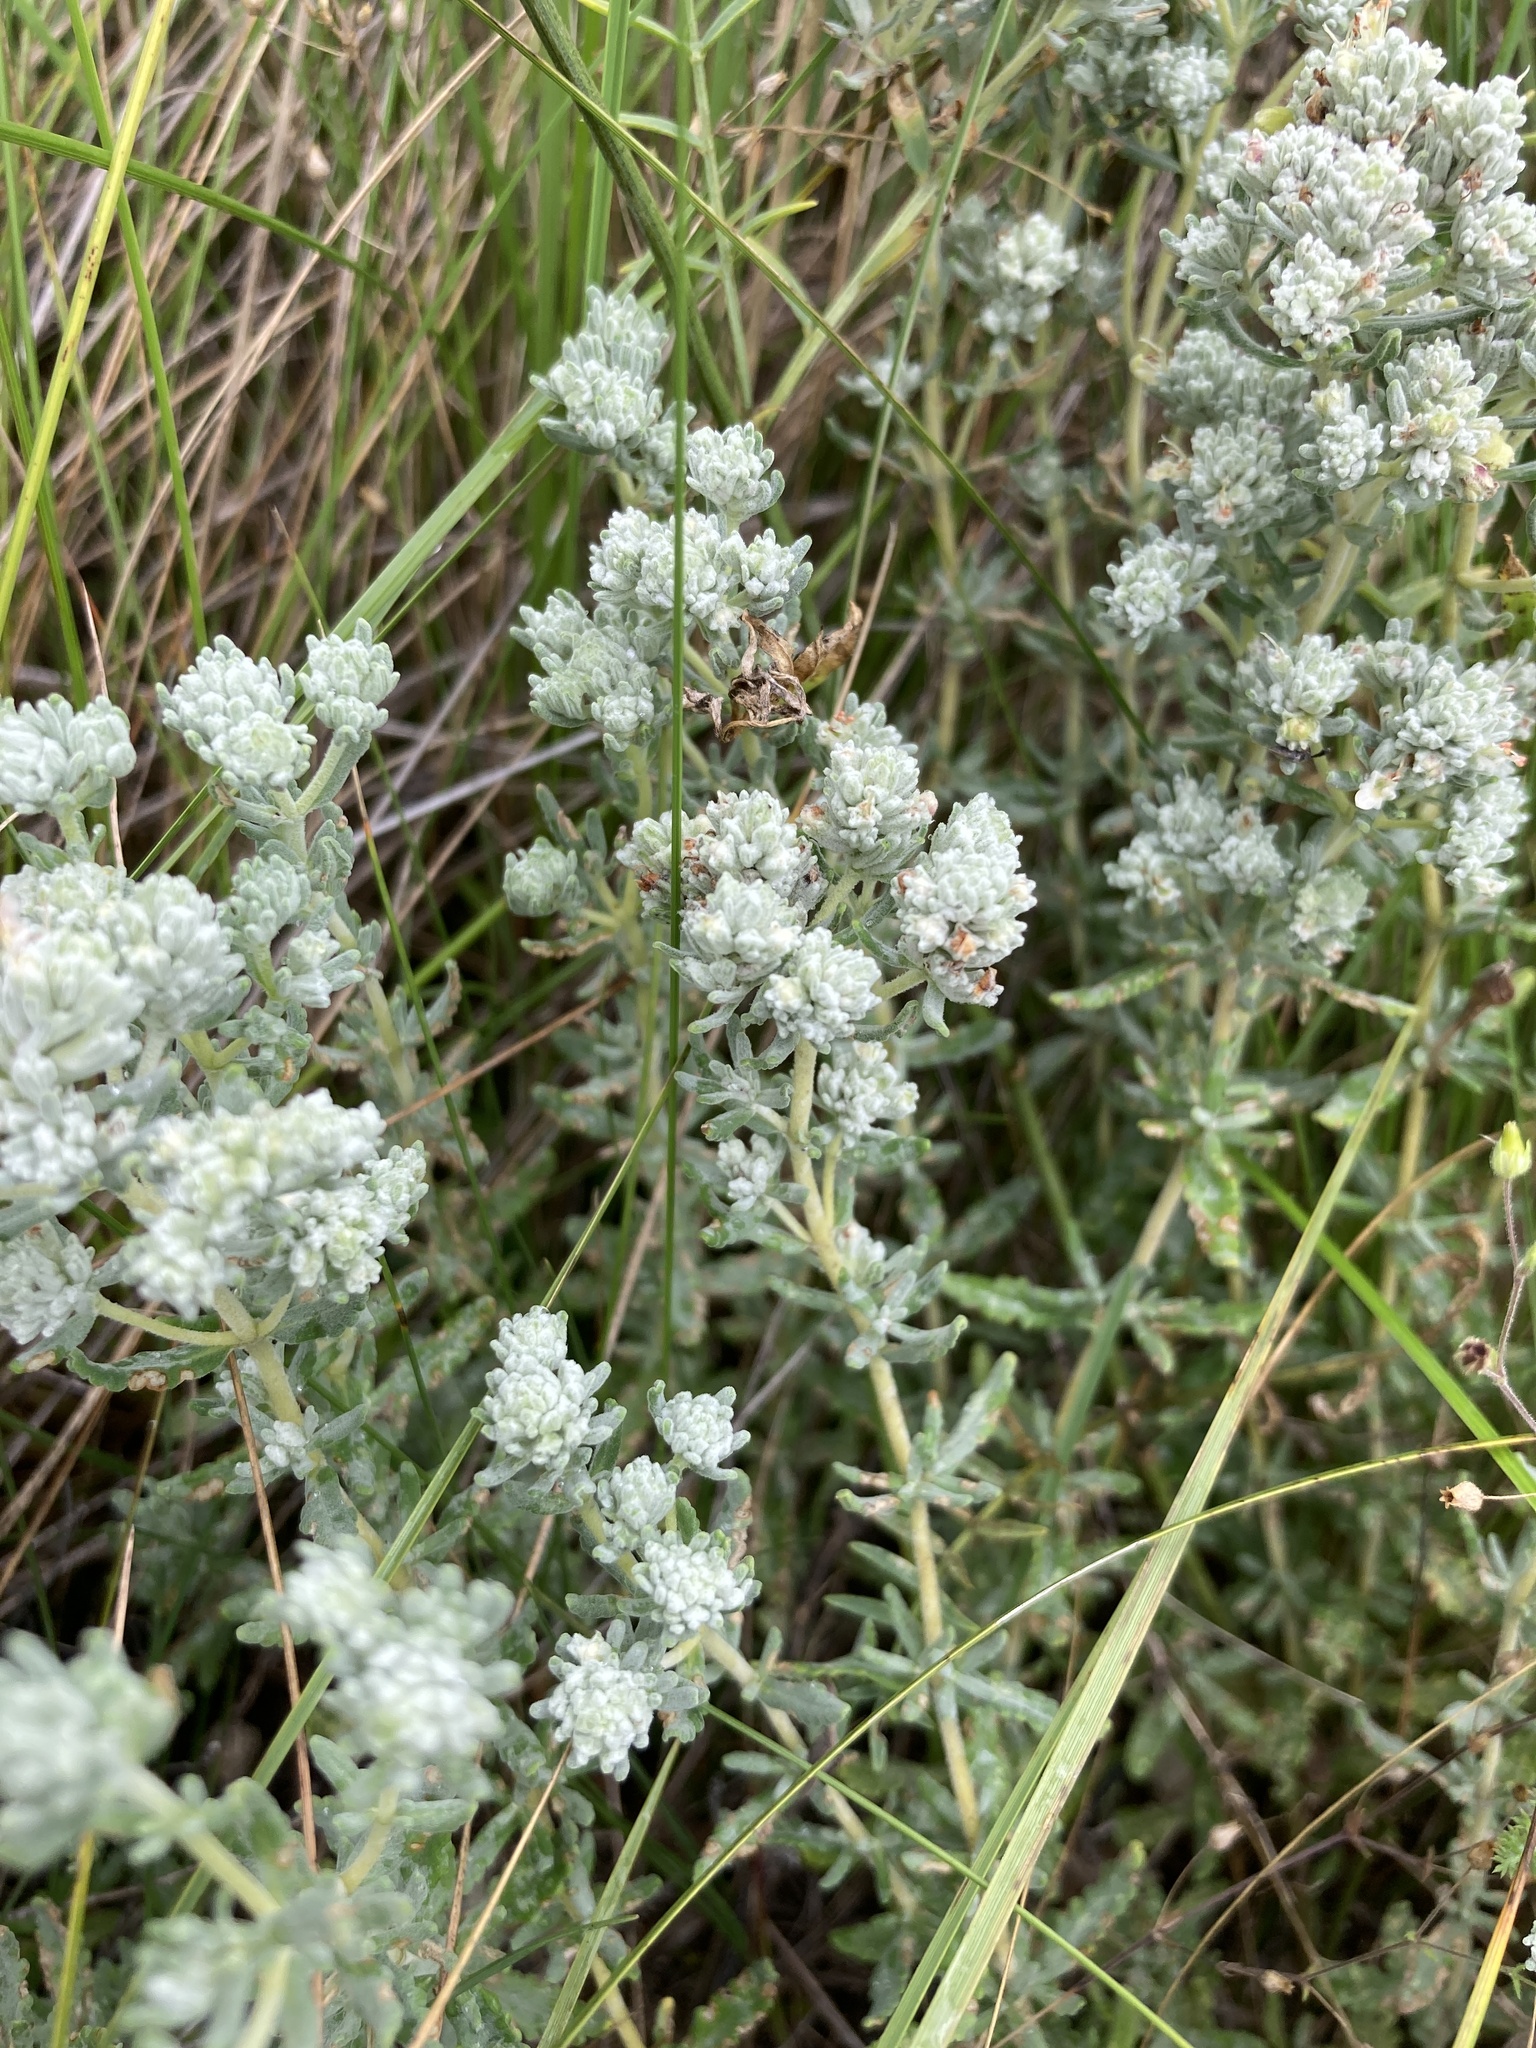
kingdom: Plantae
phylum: Tracheophyta
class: Magnoliopsida
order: Lamiales
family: Lamiaceae
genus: Teucrium
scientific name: Teucrium polium
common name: Poley
